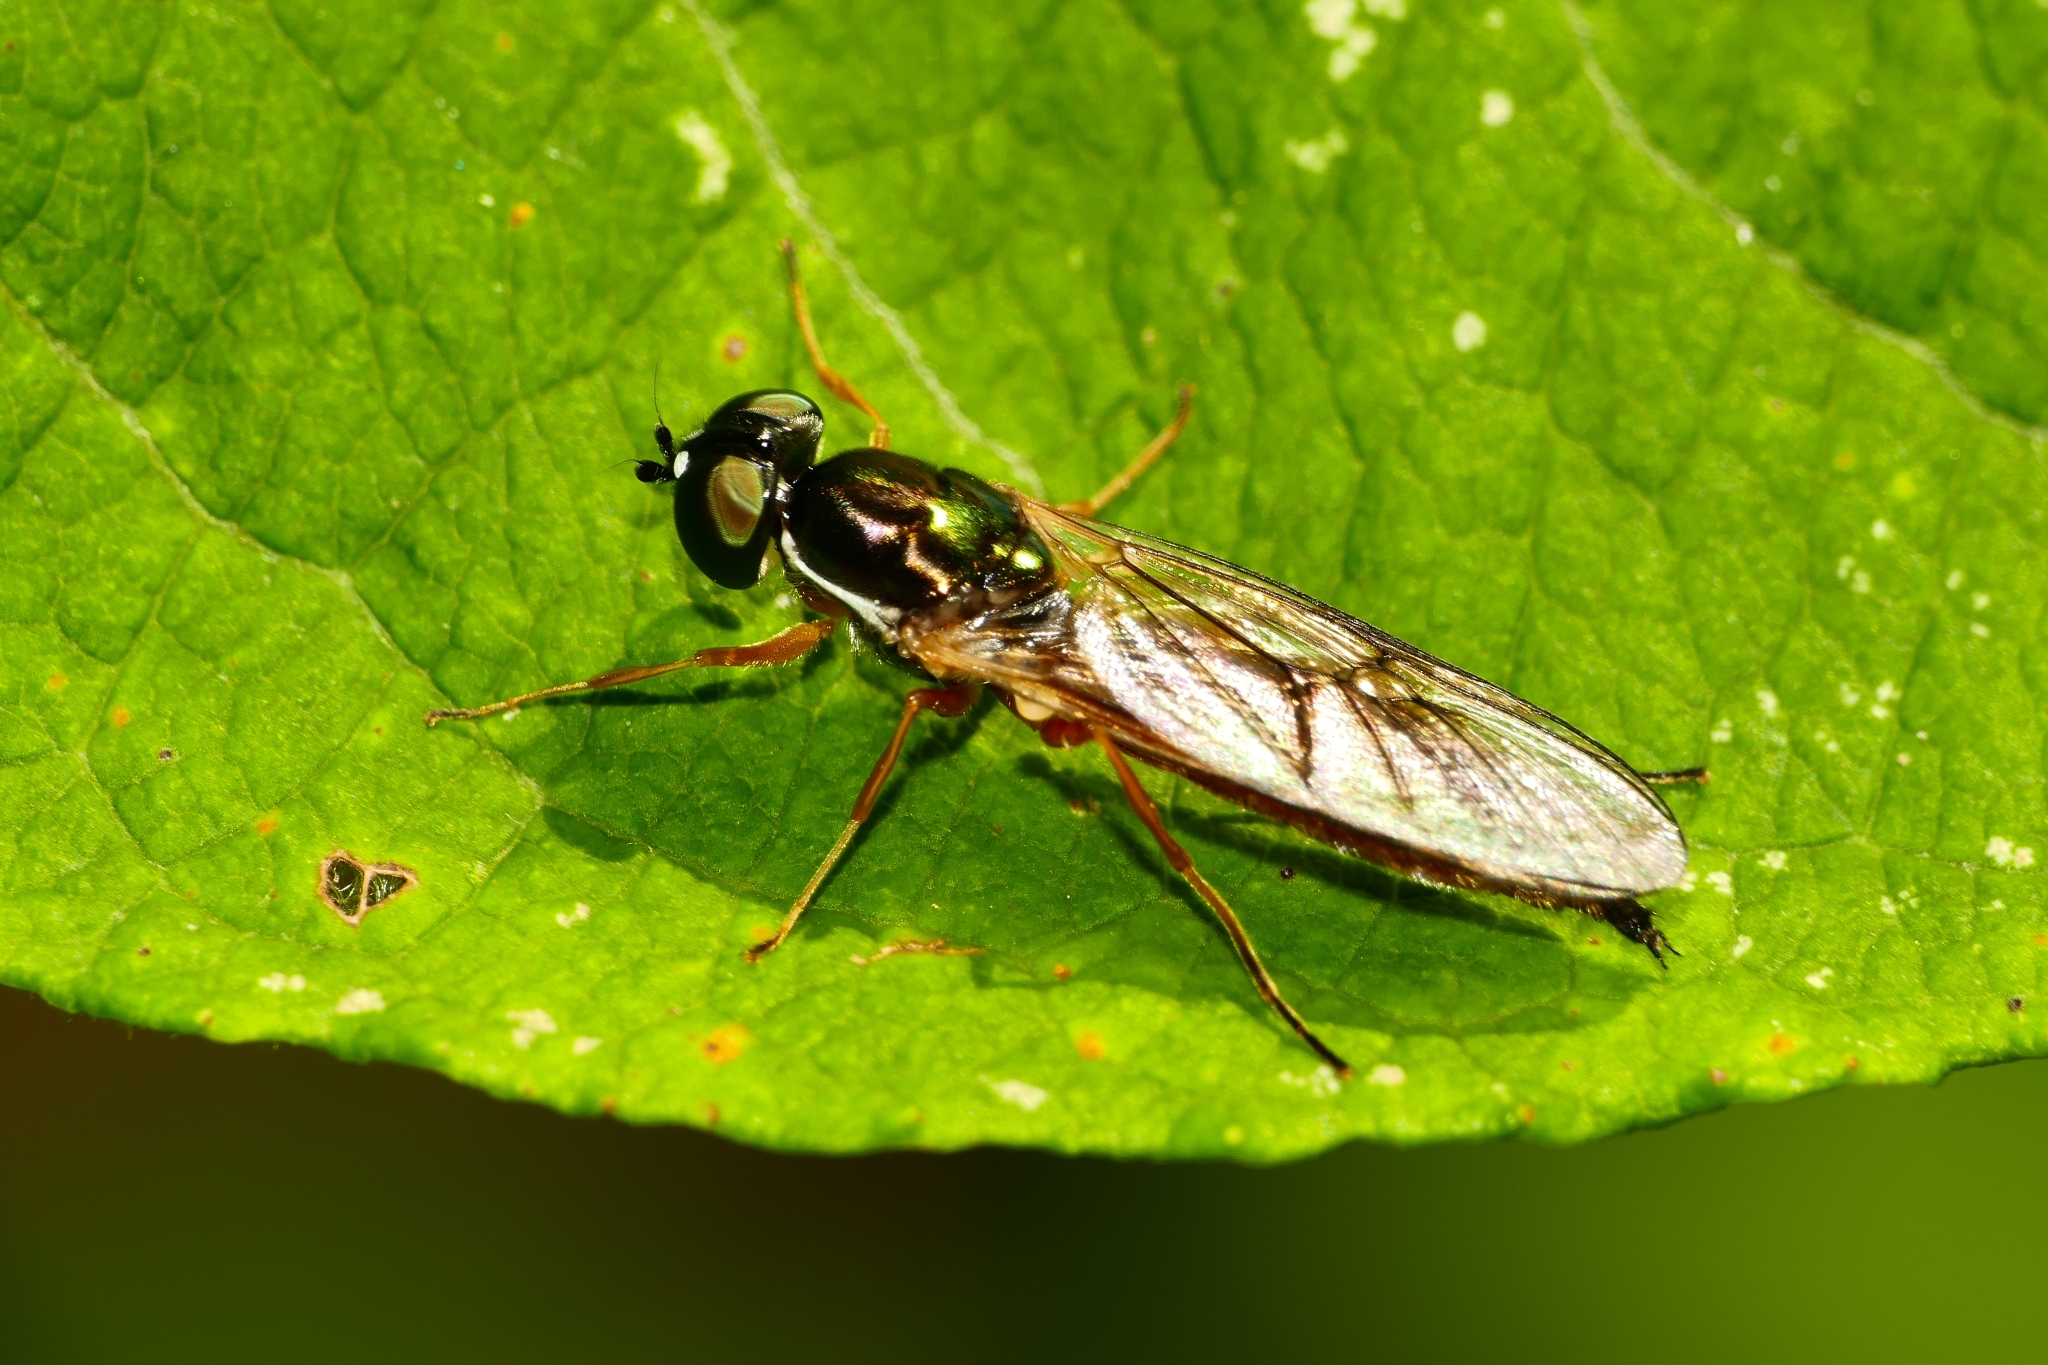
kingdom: Animalia
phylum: Arthropoda
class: Insecta
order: Diptera
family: Stratiomyidae
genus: Sargus
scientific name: Sargus bipunctatus
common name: Twin-spot centurion
